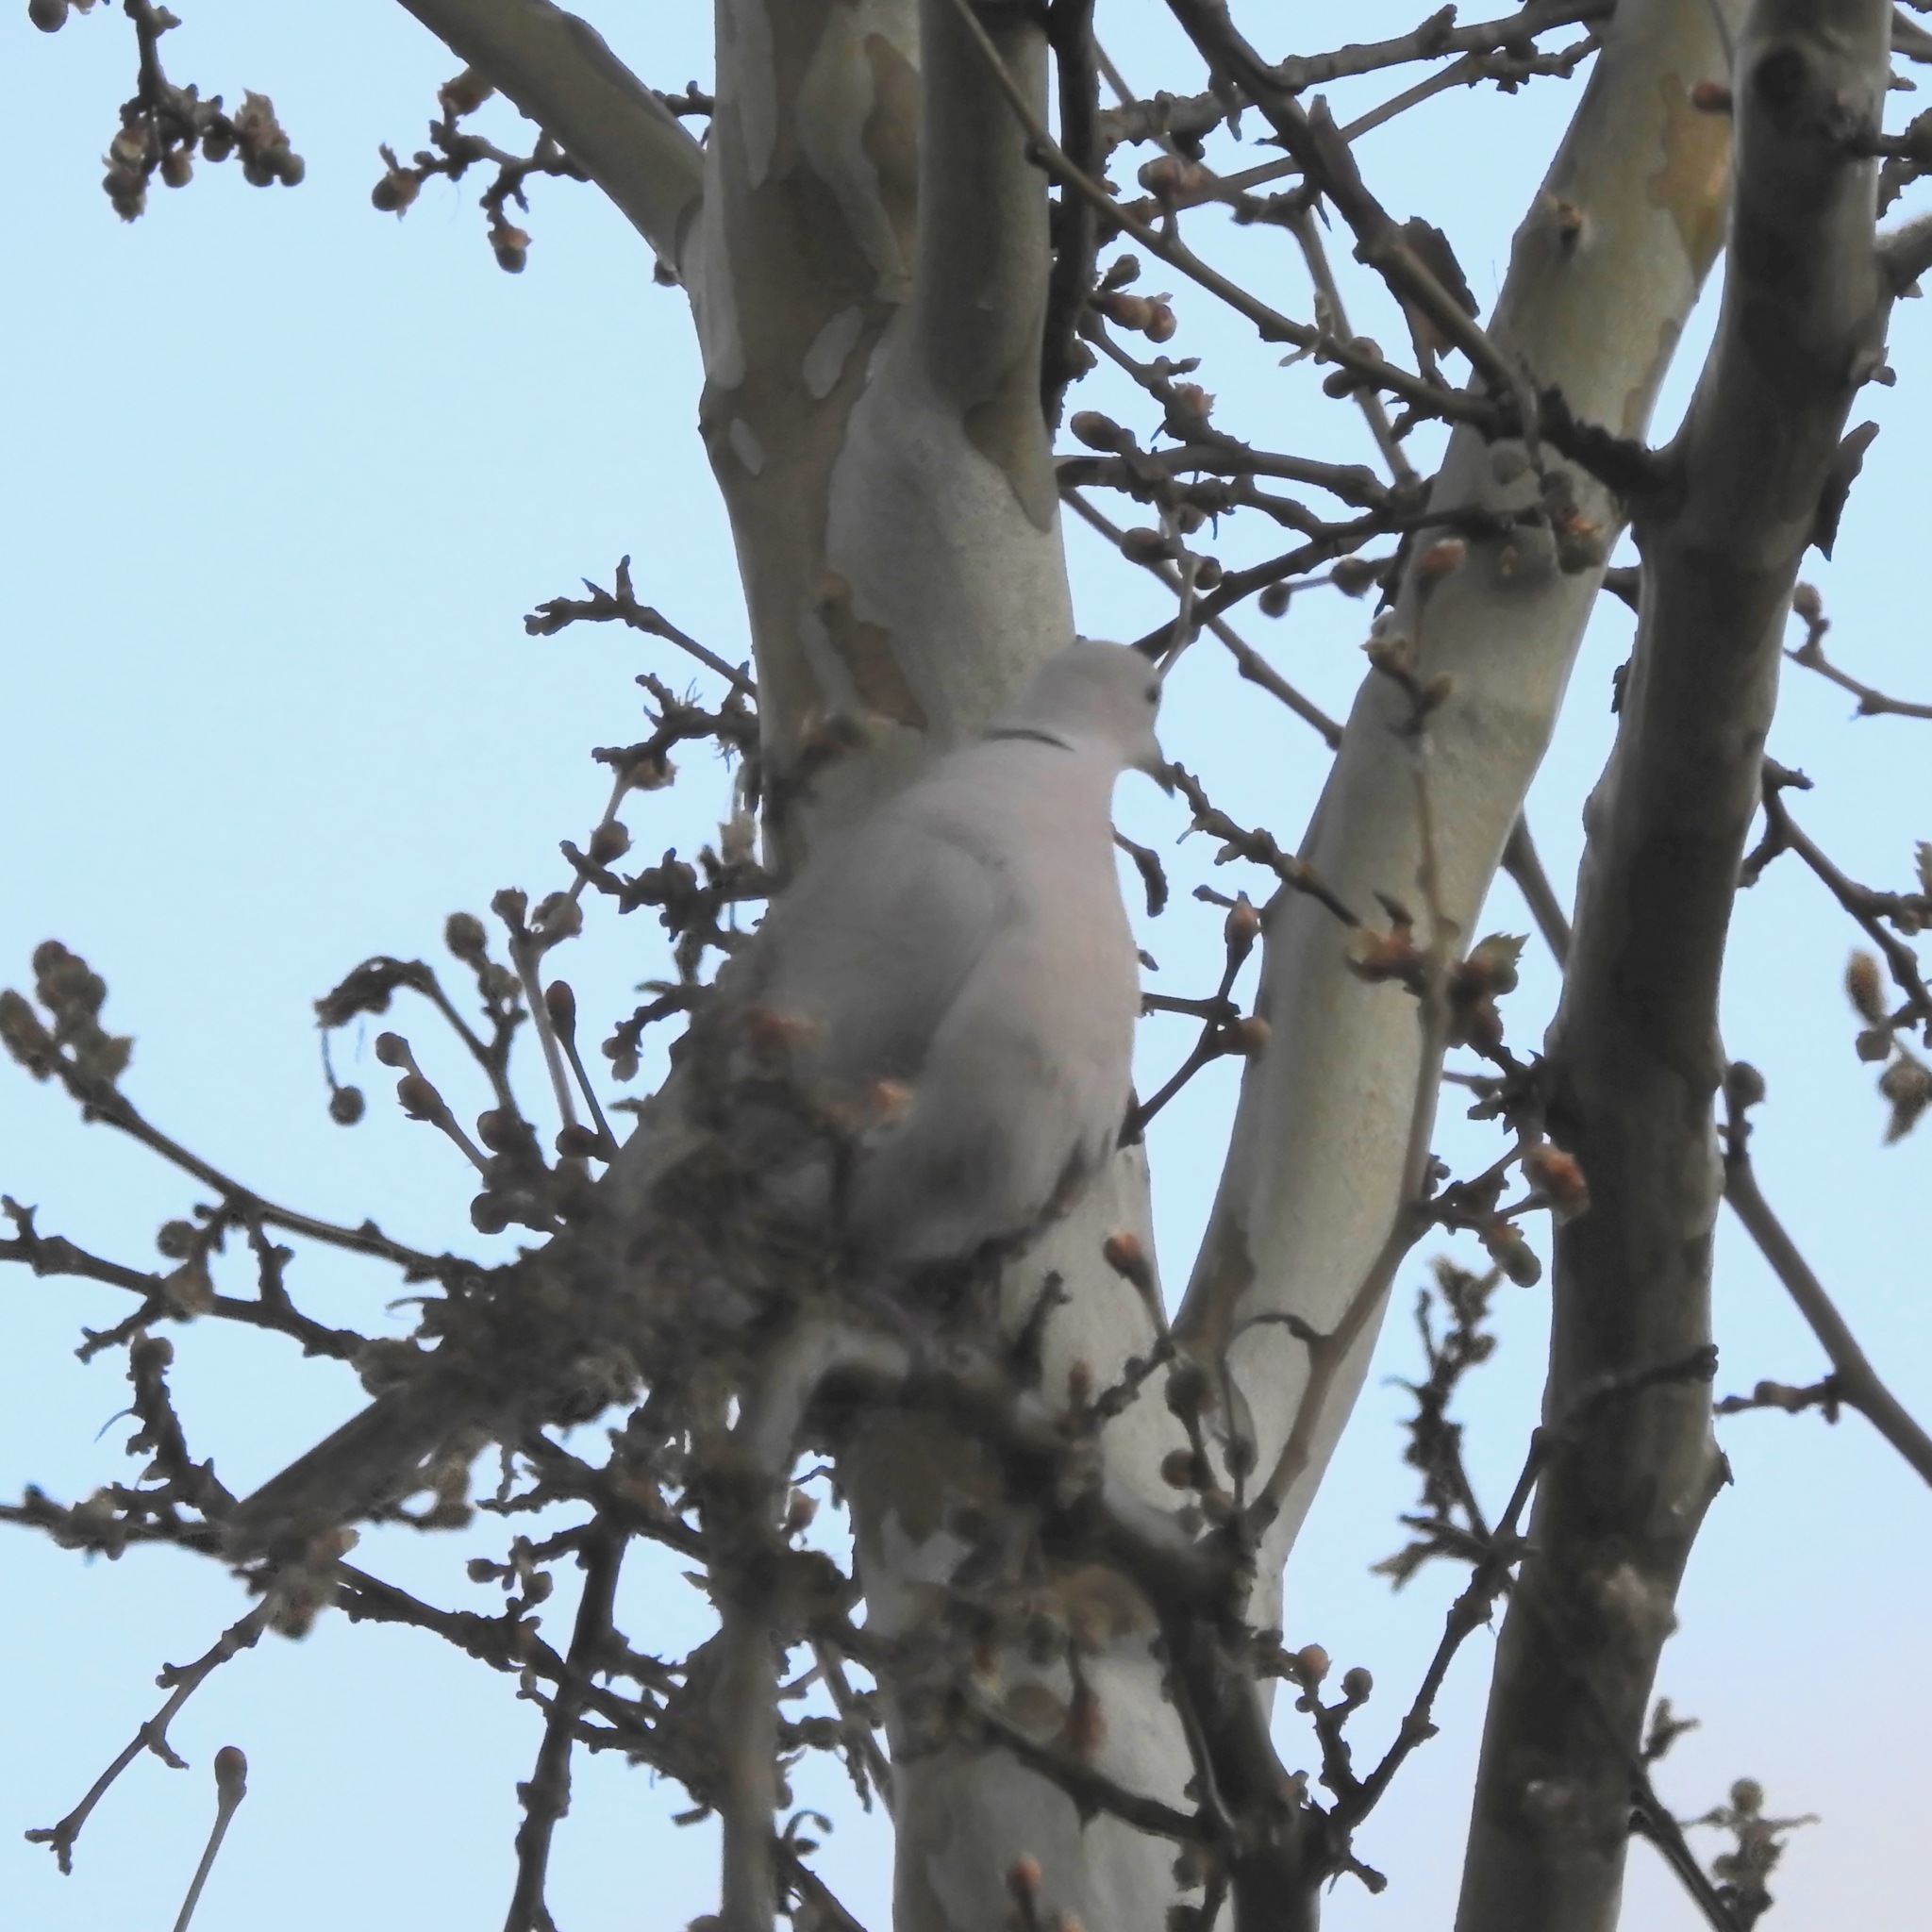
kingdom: Animalia
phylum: Chordata
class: Aves
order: Columbiformes
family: Columbidae
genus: Streptopelia
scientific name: Streptopelia decaocto
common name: Eurasian collared dove
